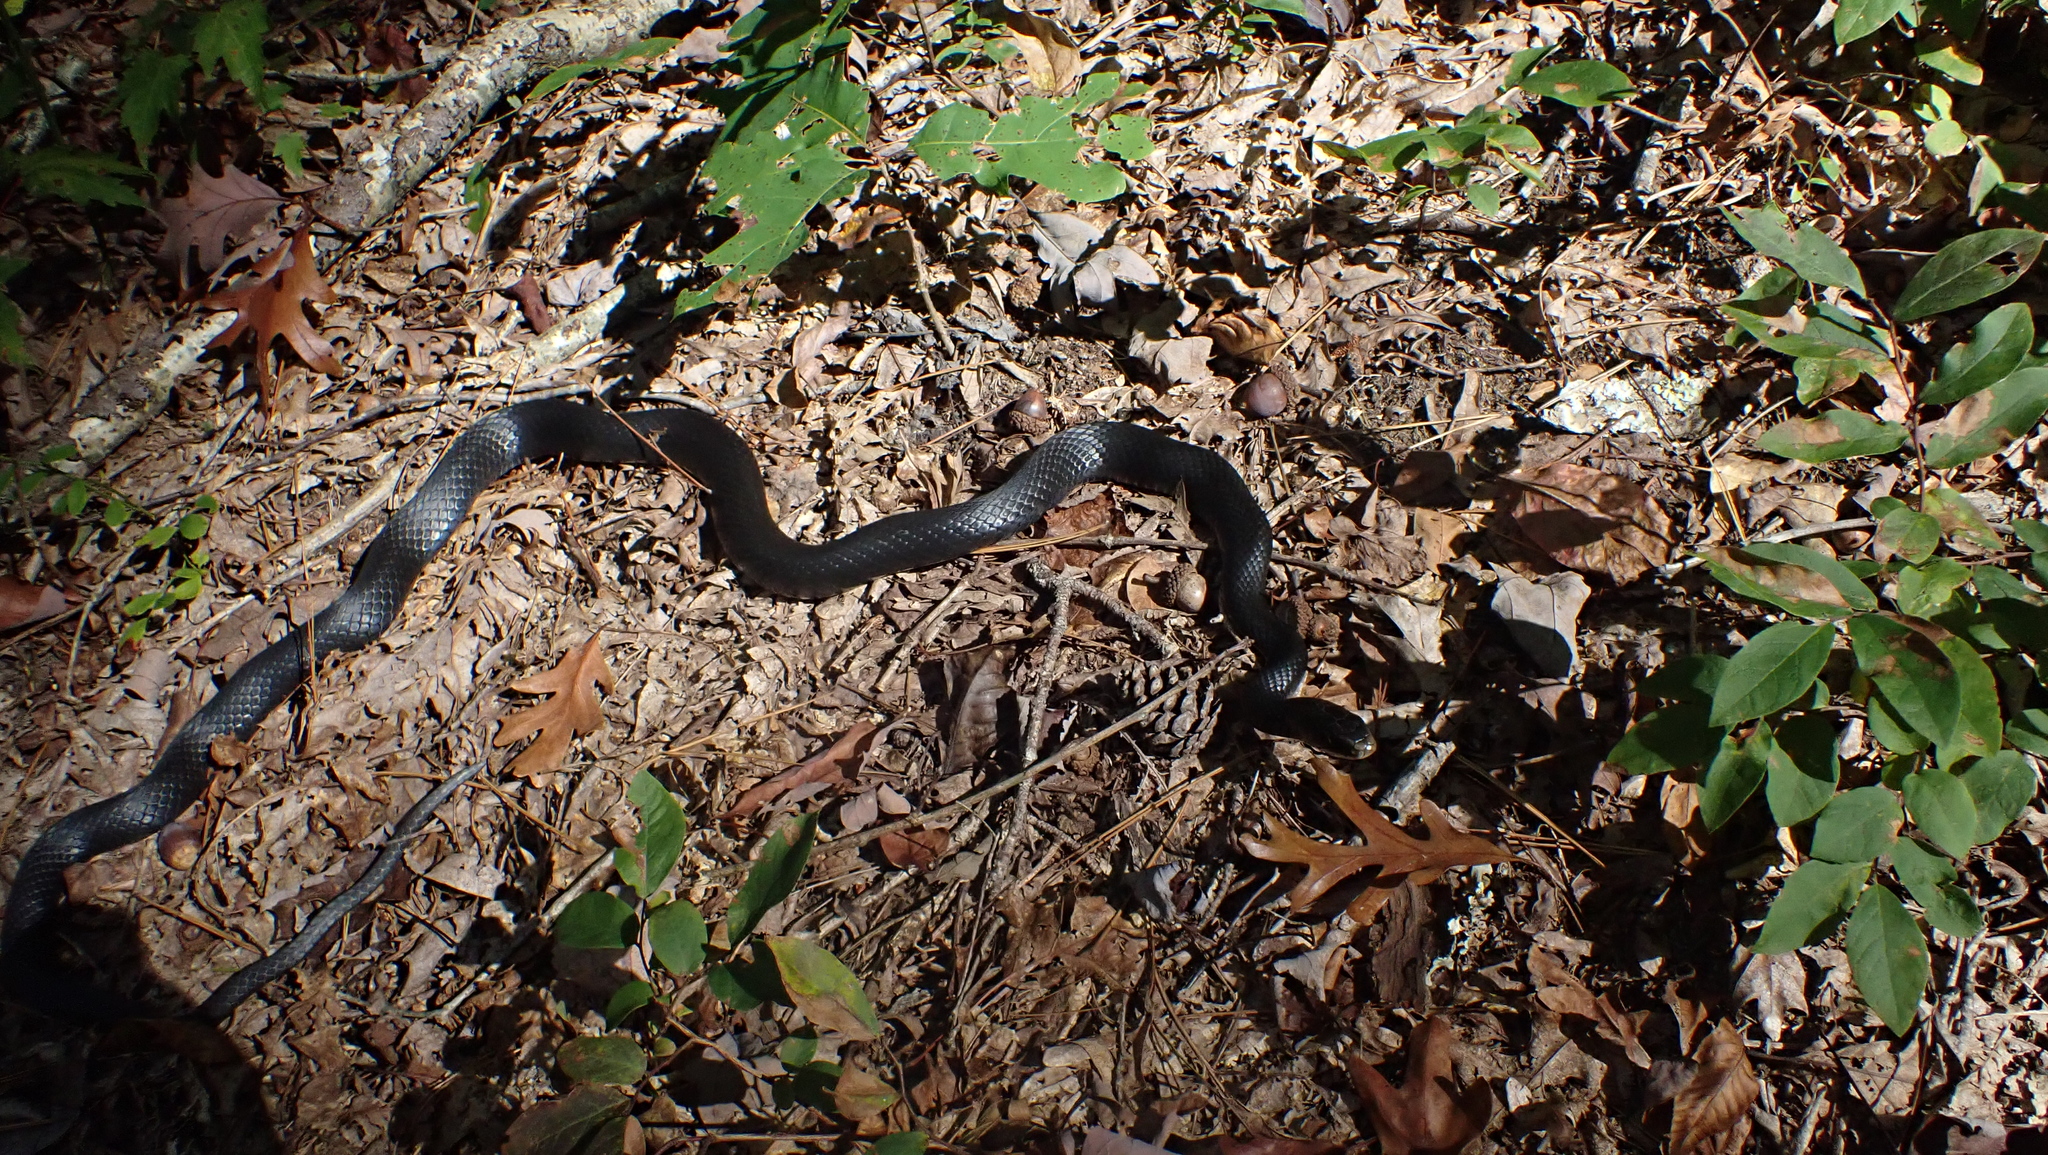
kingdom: Animalia
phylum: Chordata
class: Squamata
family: Colubridae
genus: Coluber
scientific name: Coluber constrictor
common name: Eastern racer
